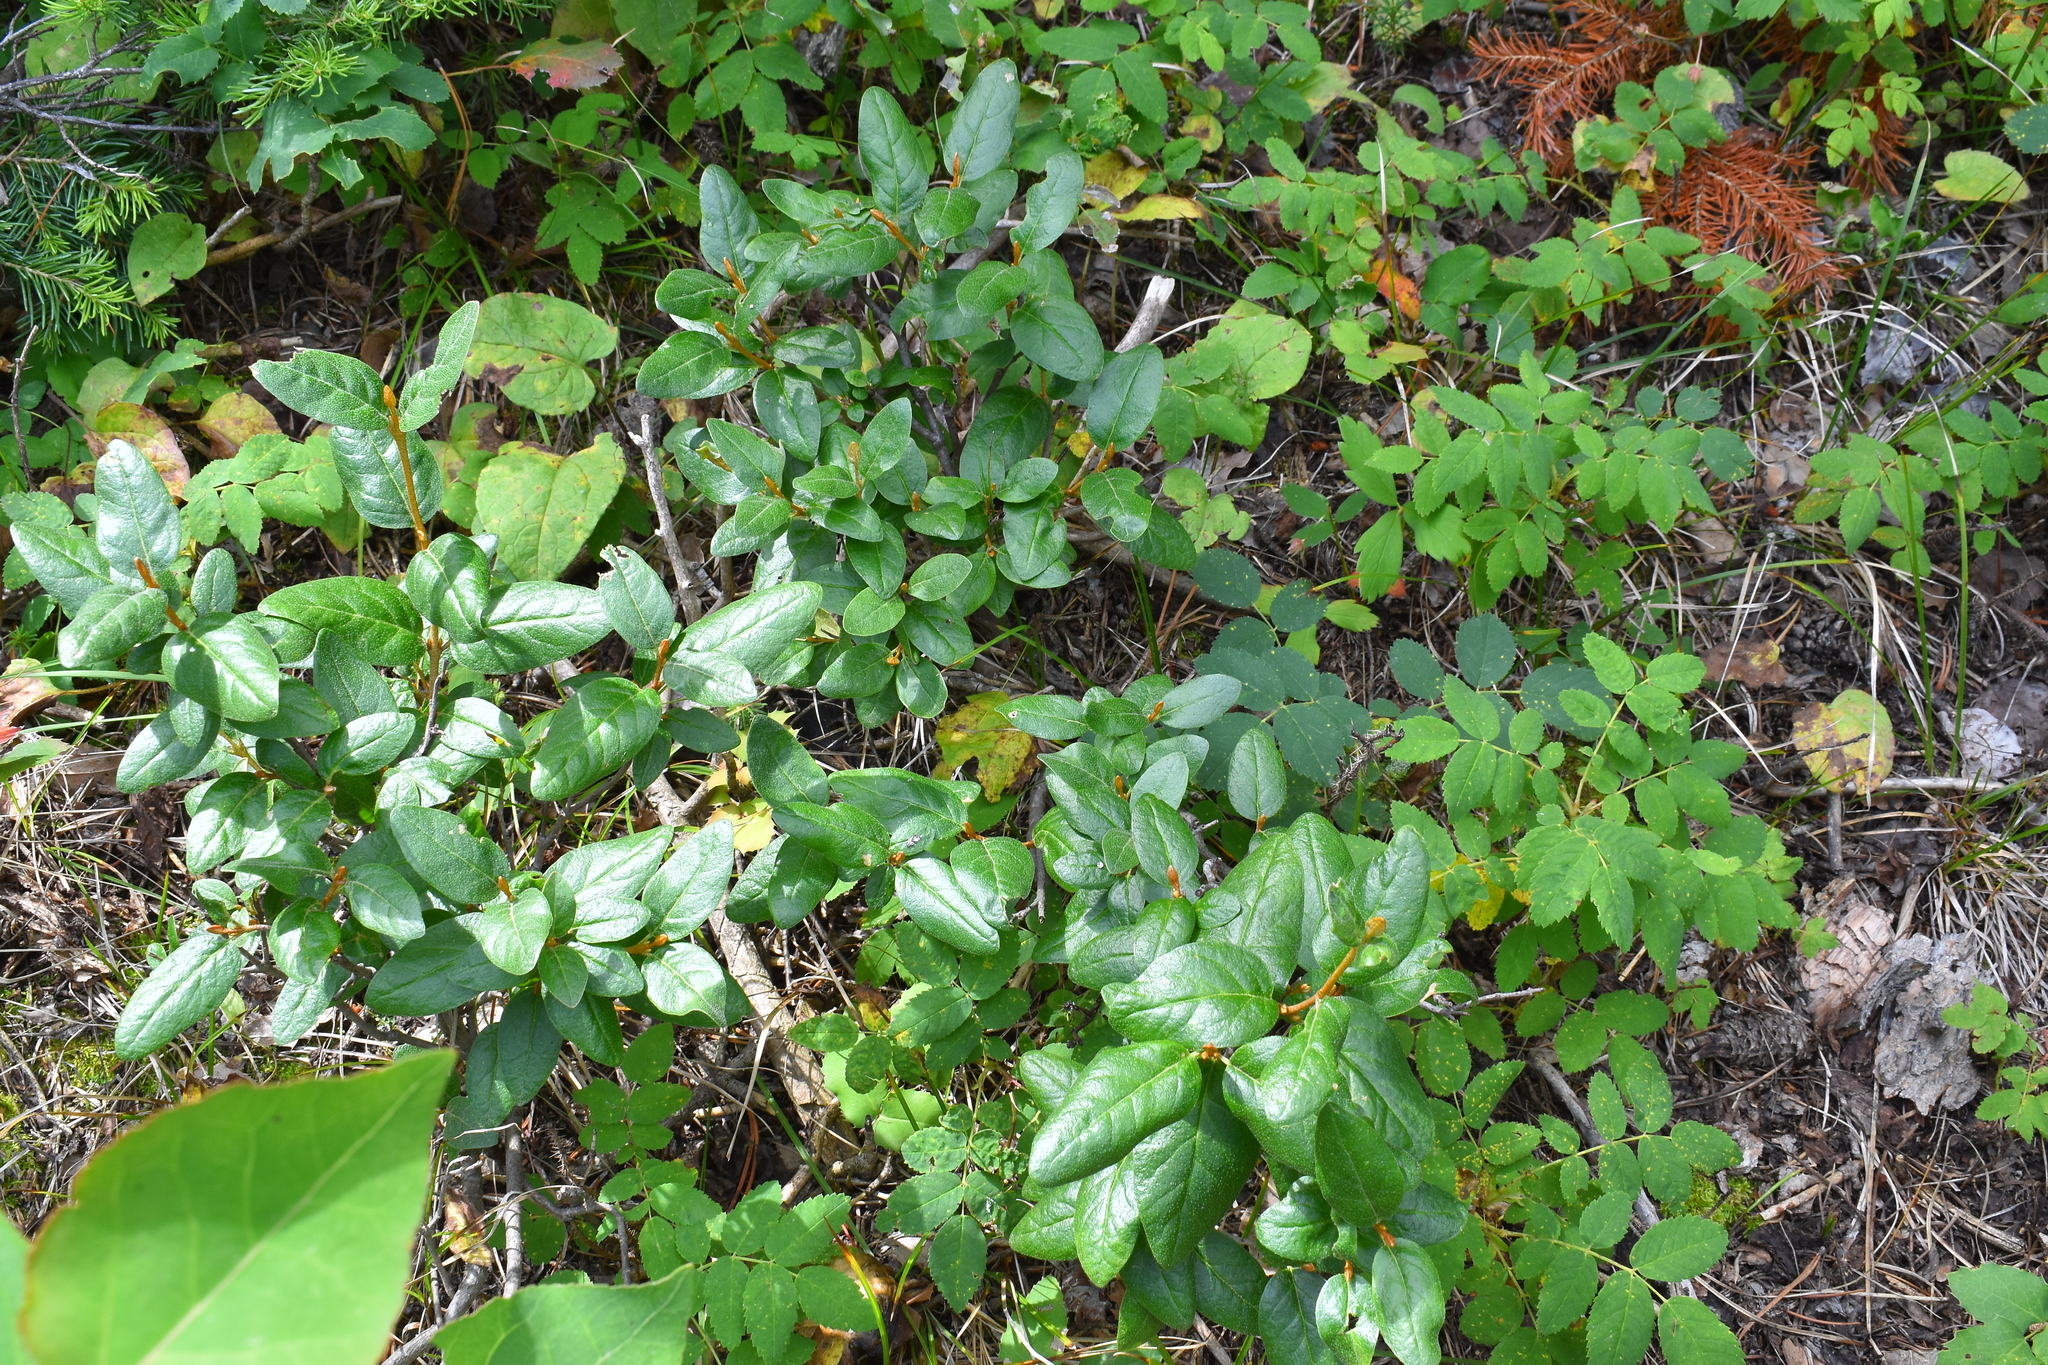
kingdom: Plantae
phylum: Tracheophyta
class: Magnoliopsida
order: Rosales
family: Elaeagnaceae
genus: Shepherdia
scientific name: Shepherdia canadensis
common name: Soapberry
